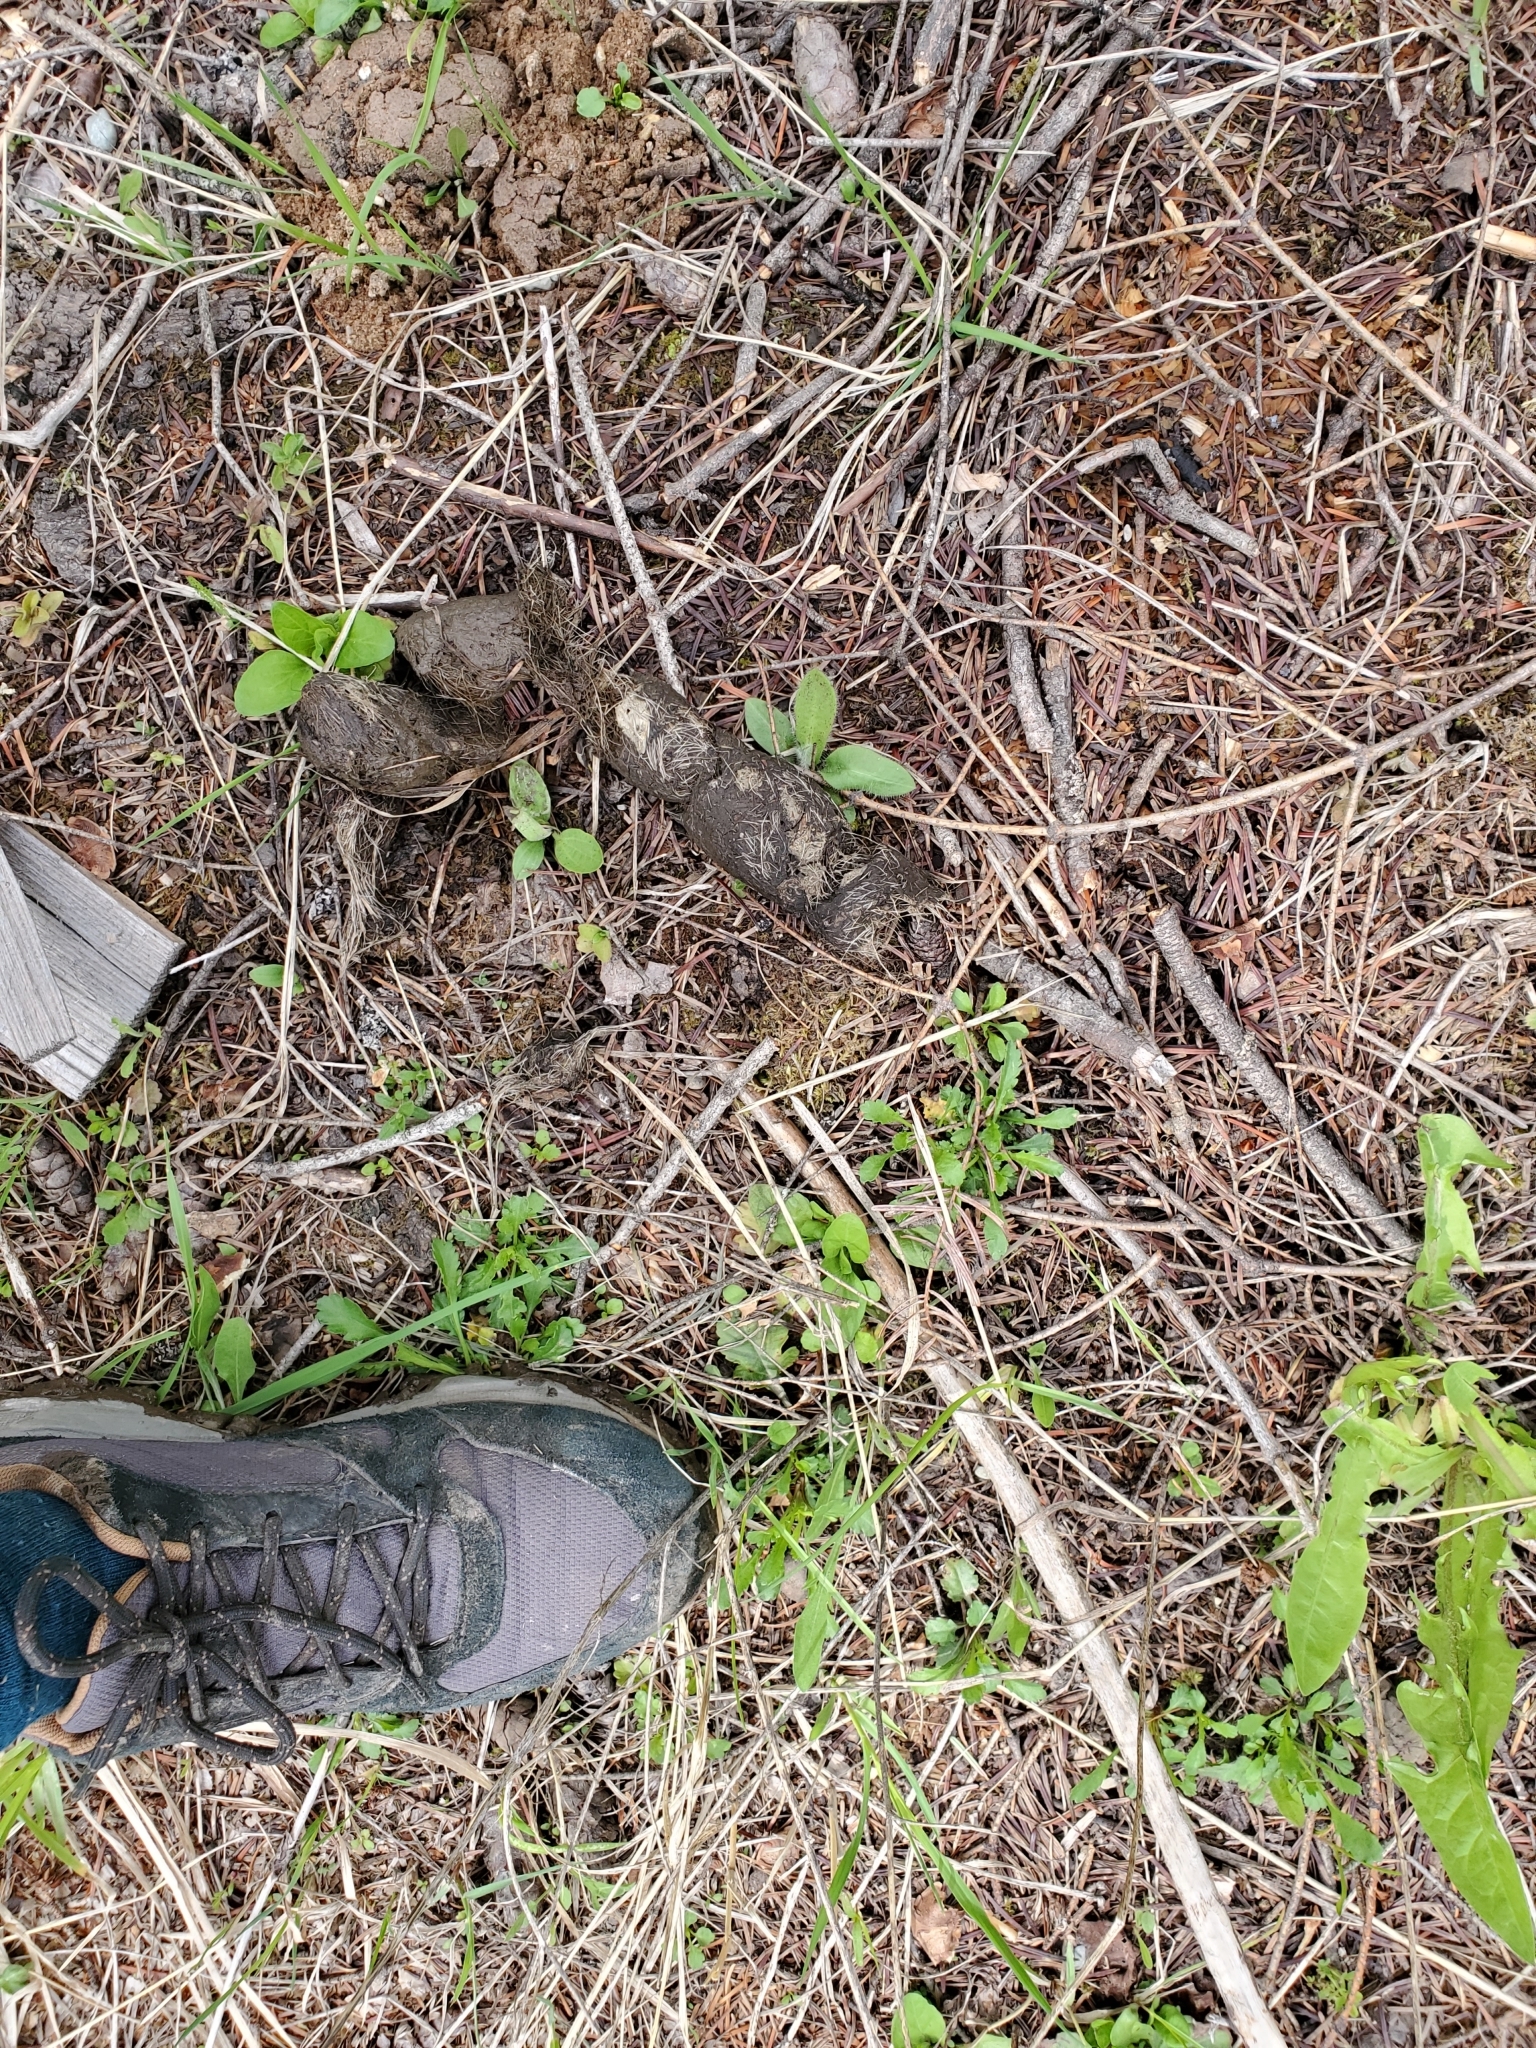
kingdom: Animalia
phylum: Chordata
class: Mammalia
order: Carnivora
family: Canidae
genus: Canis
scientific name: Canis lupus
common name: Gray wolf
